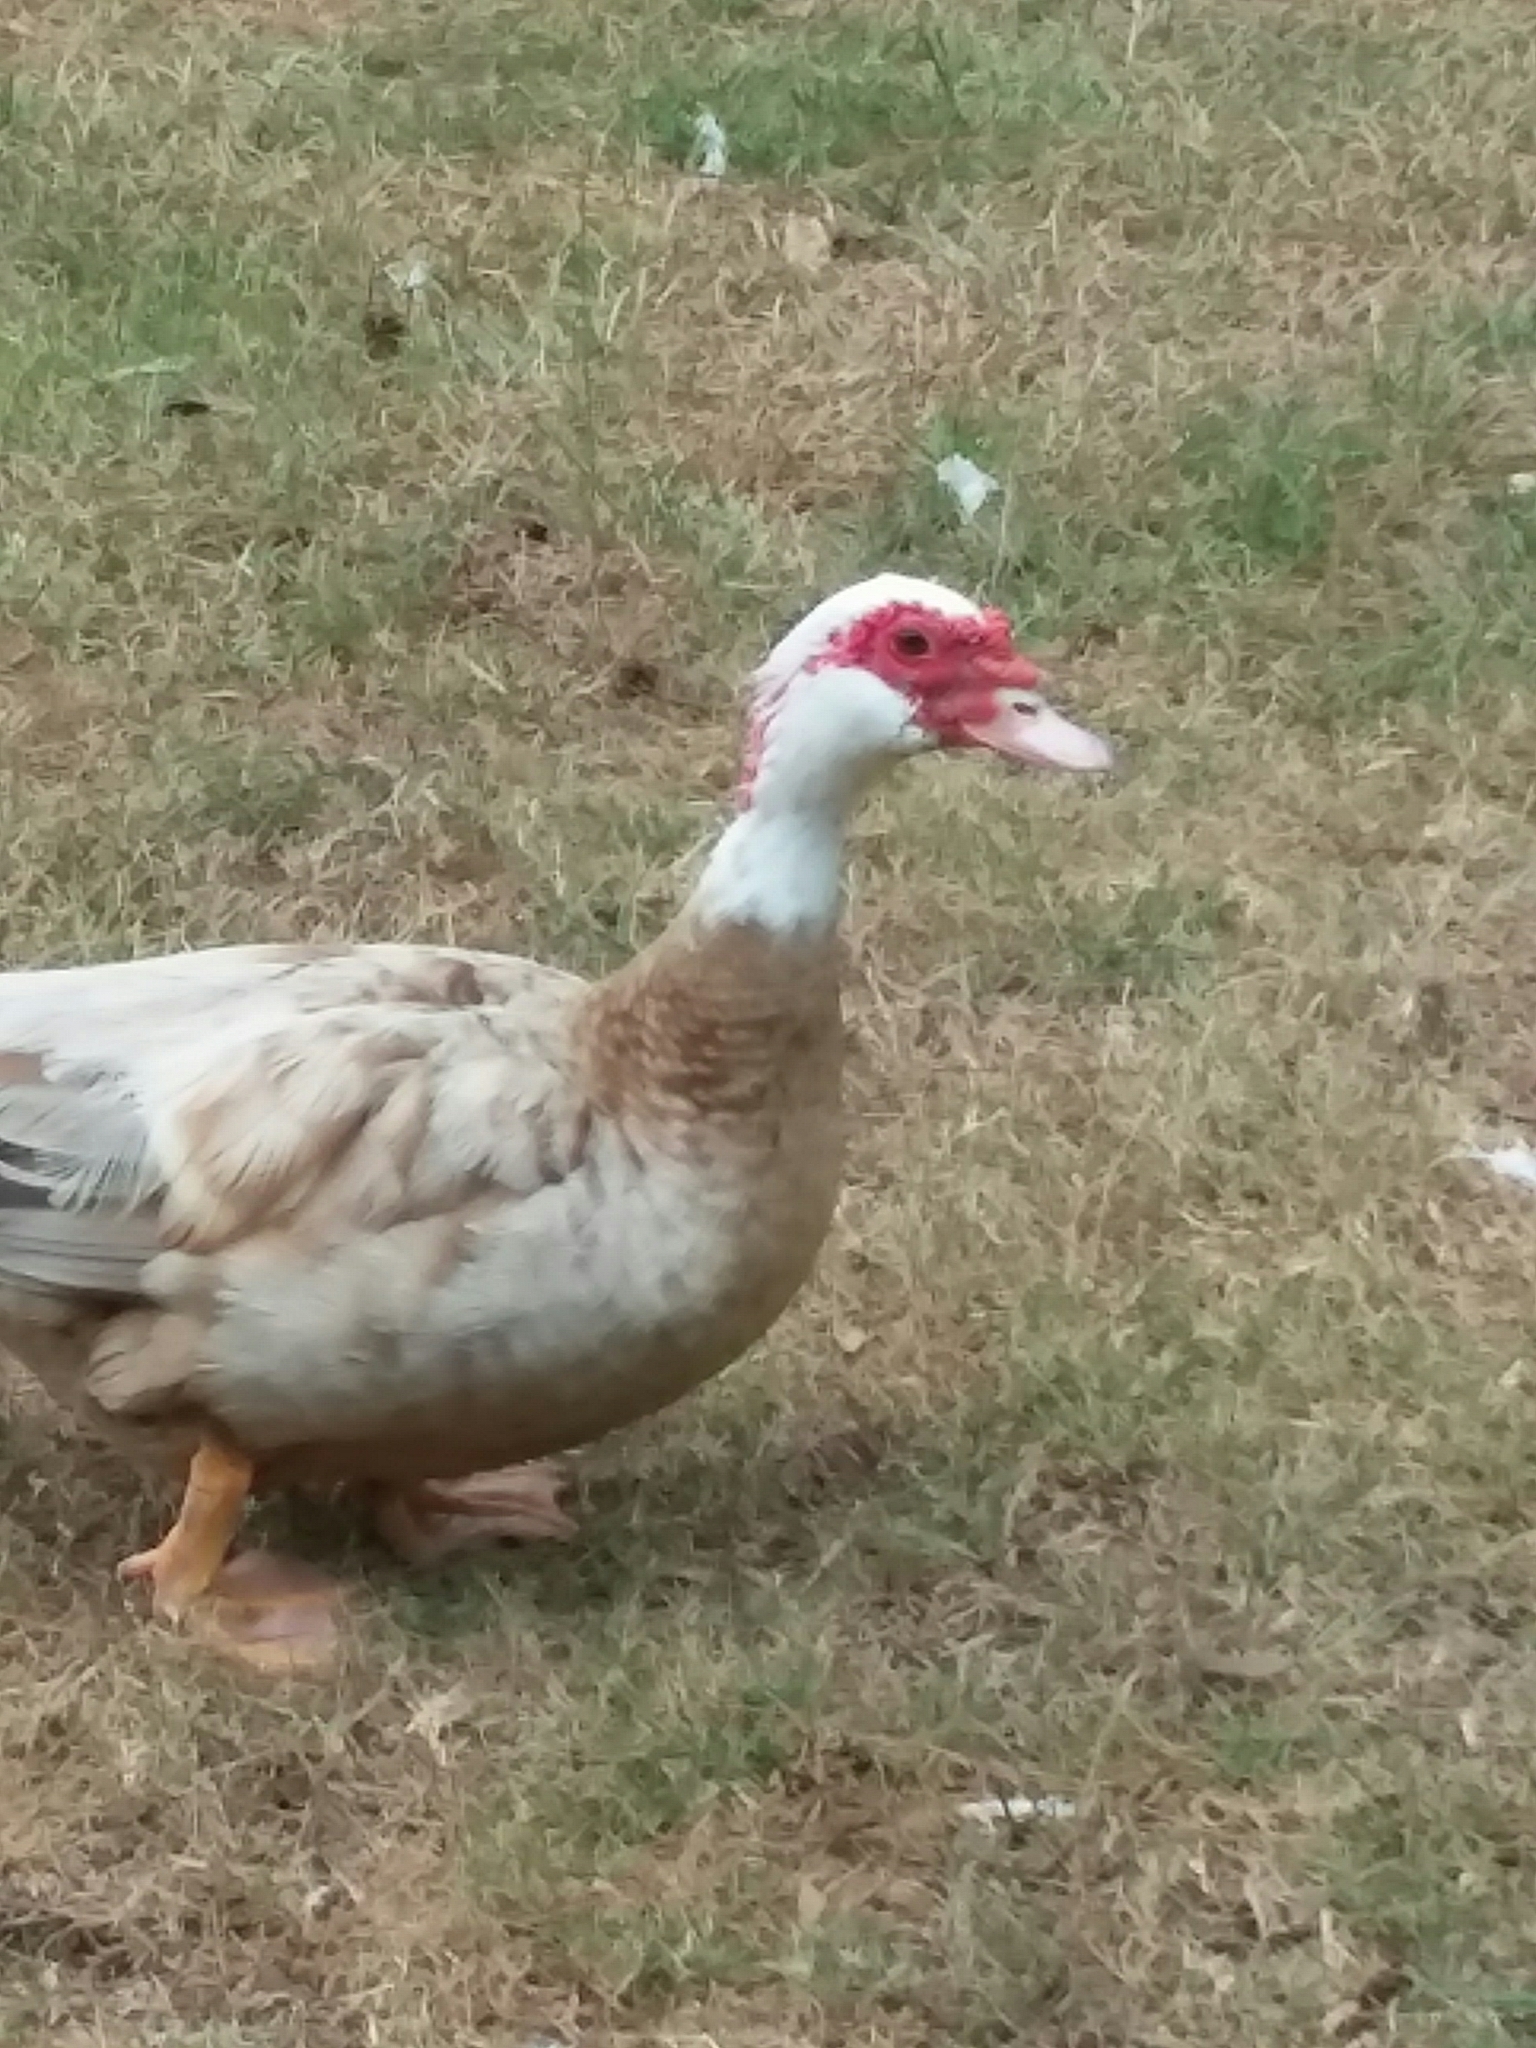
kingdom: Animalia
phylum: Chordata
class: Aves
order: Anseriformes
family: Anatidae
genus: Cairina
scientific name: Cairina moschata
